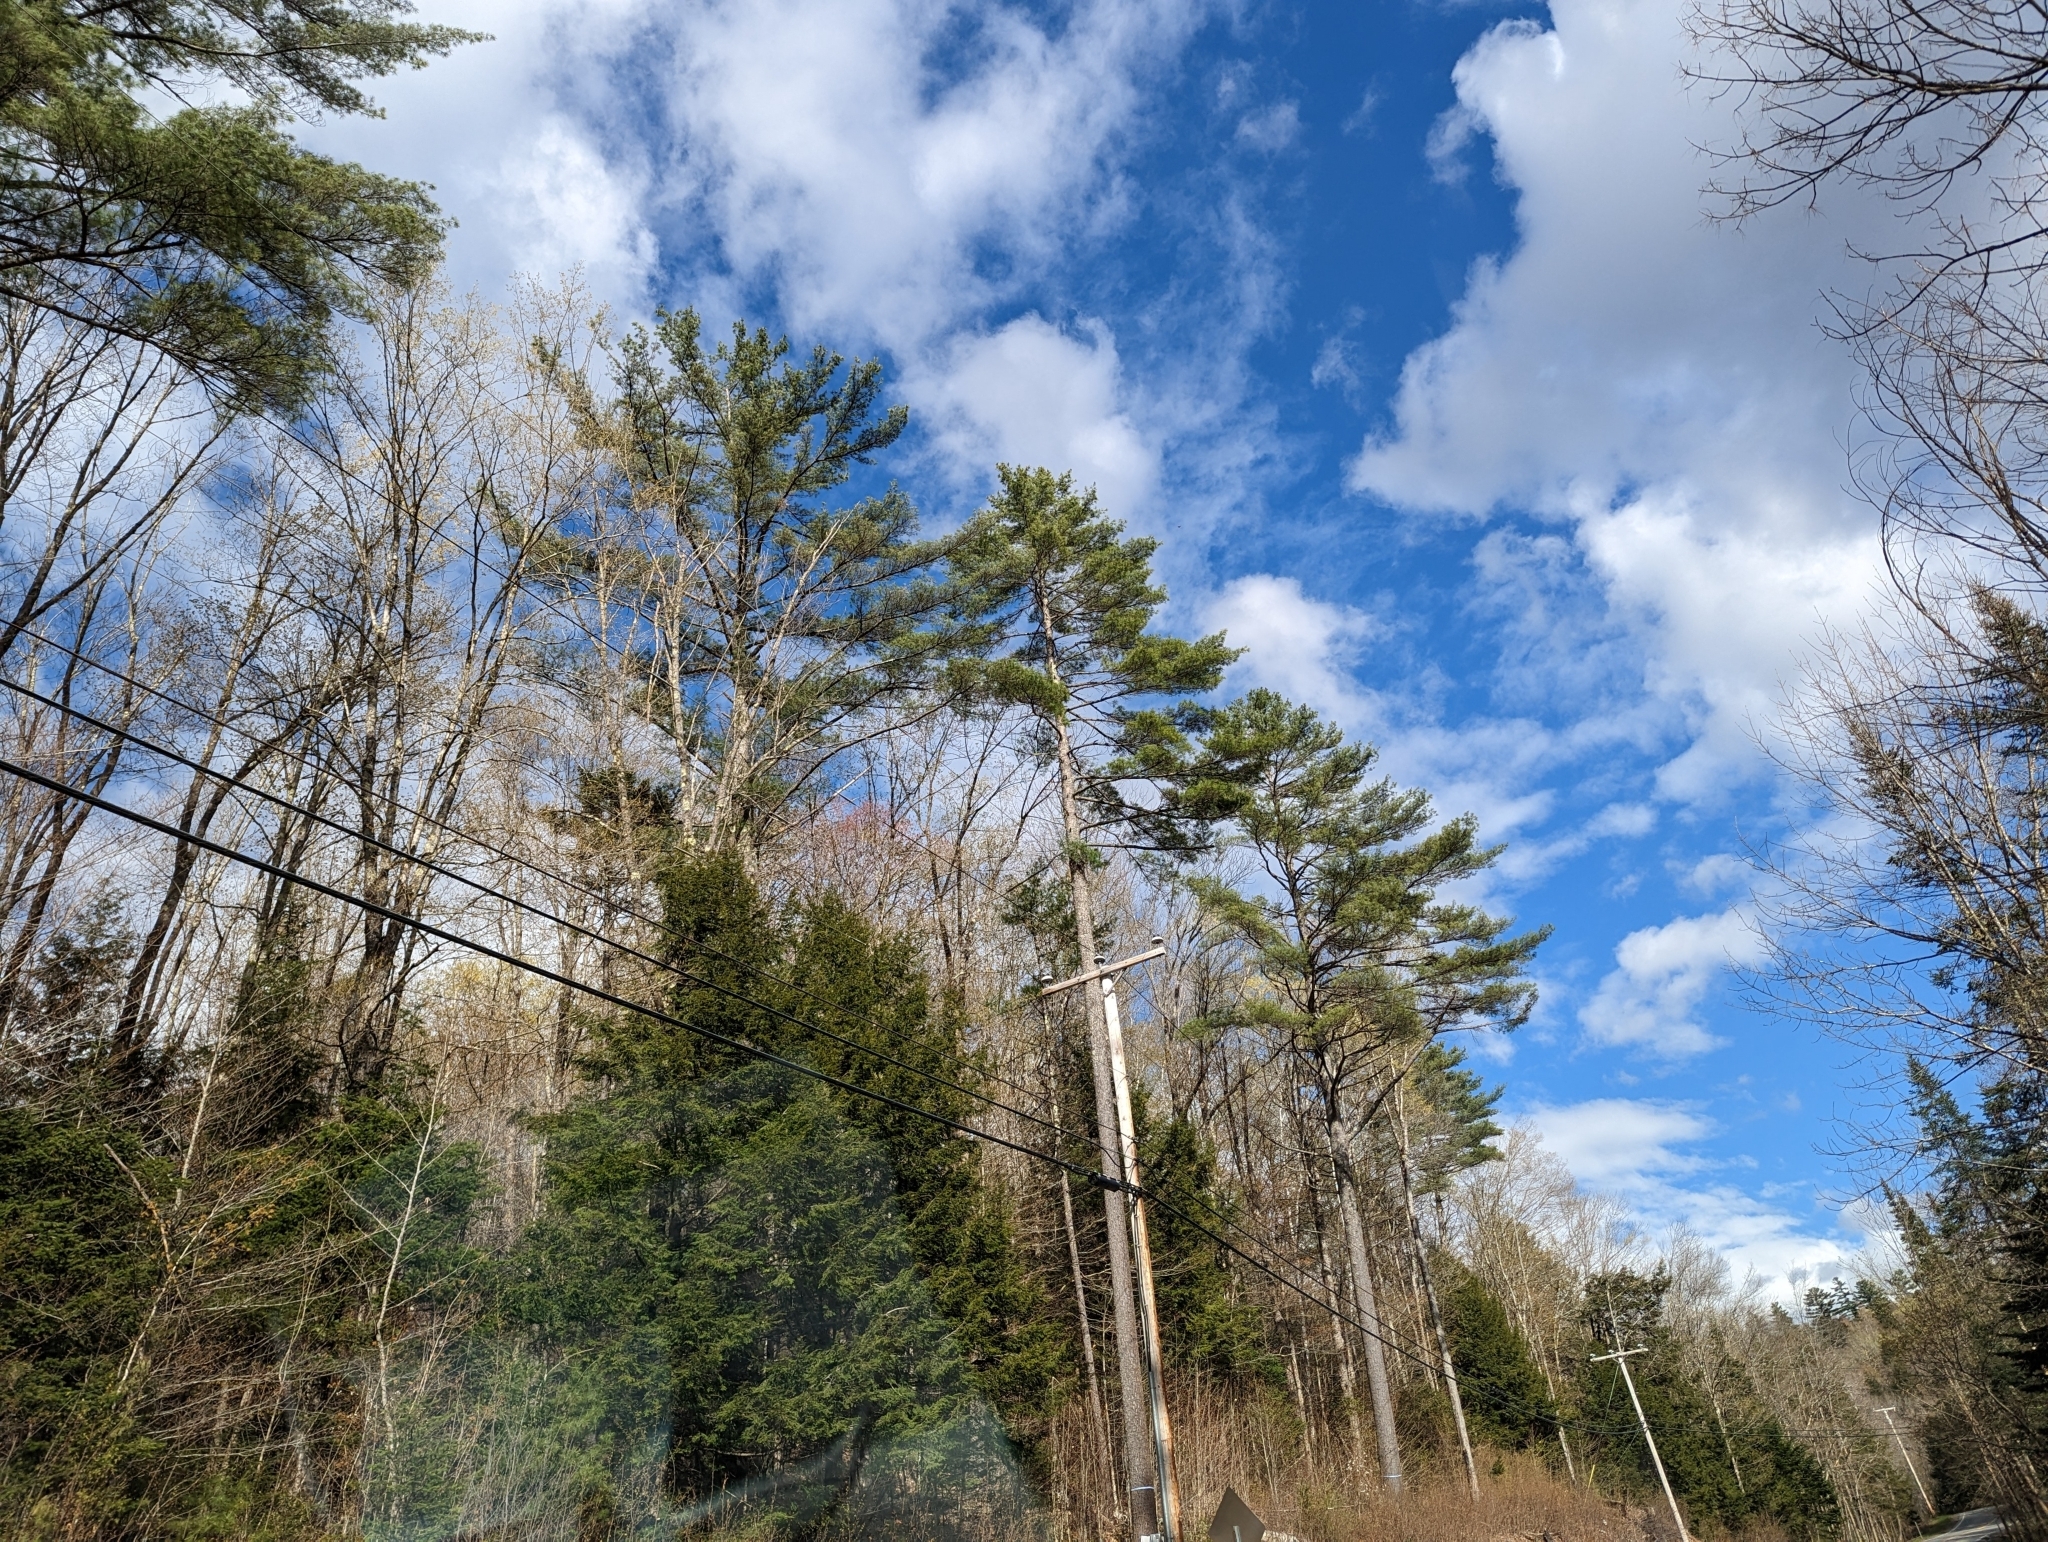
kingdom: Plantae
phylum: Tracheophyta
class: Pinopsida
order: Pinales
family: Pinaceae
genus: Pinus
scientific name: Pinus strobus
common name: Weymouth pine
